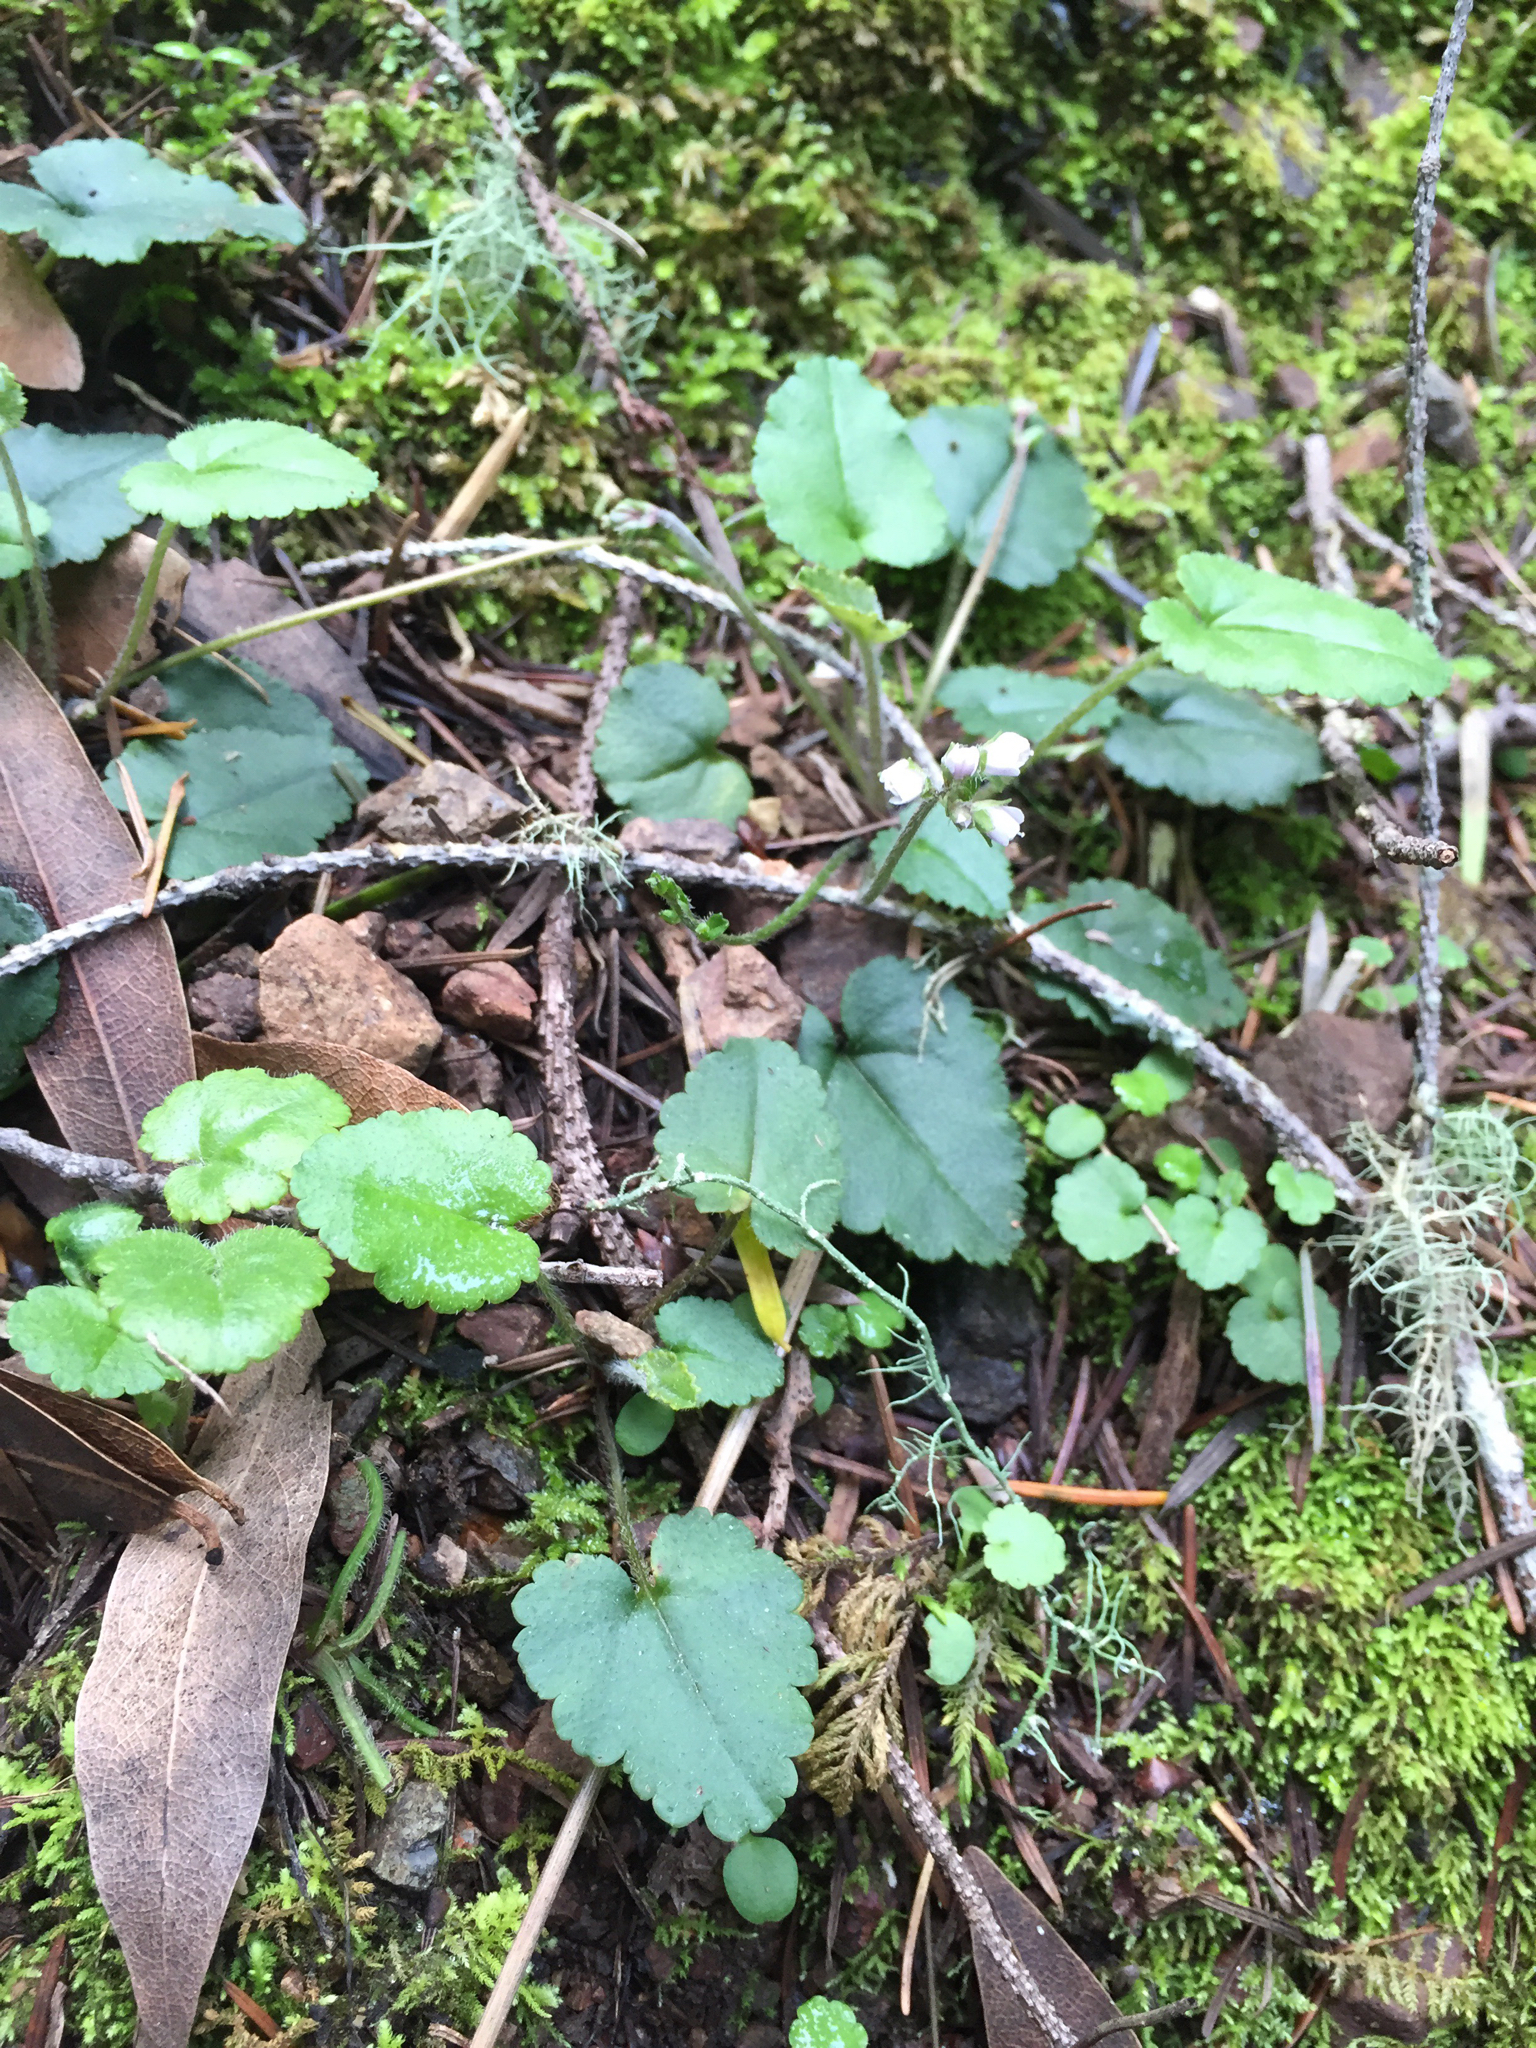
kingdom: Plantae
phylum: Tracheophyta
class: Magnoliopsida
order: Lamiales
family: Plantaginaceae
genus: Synthyris
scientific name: Synthyris cordata
